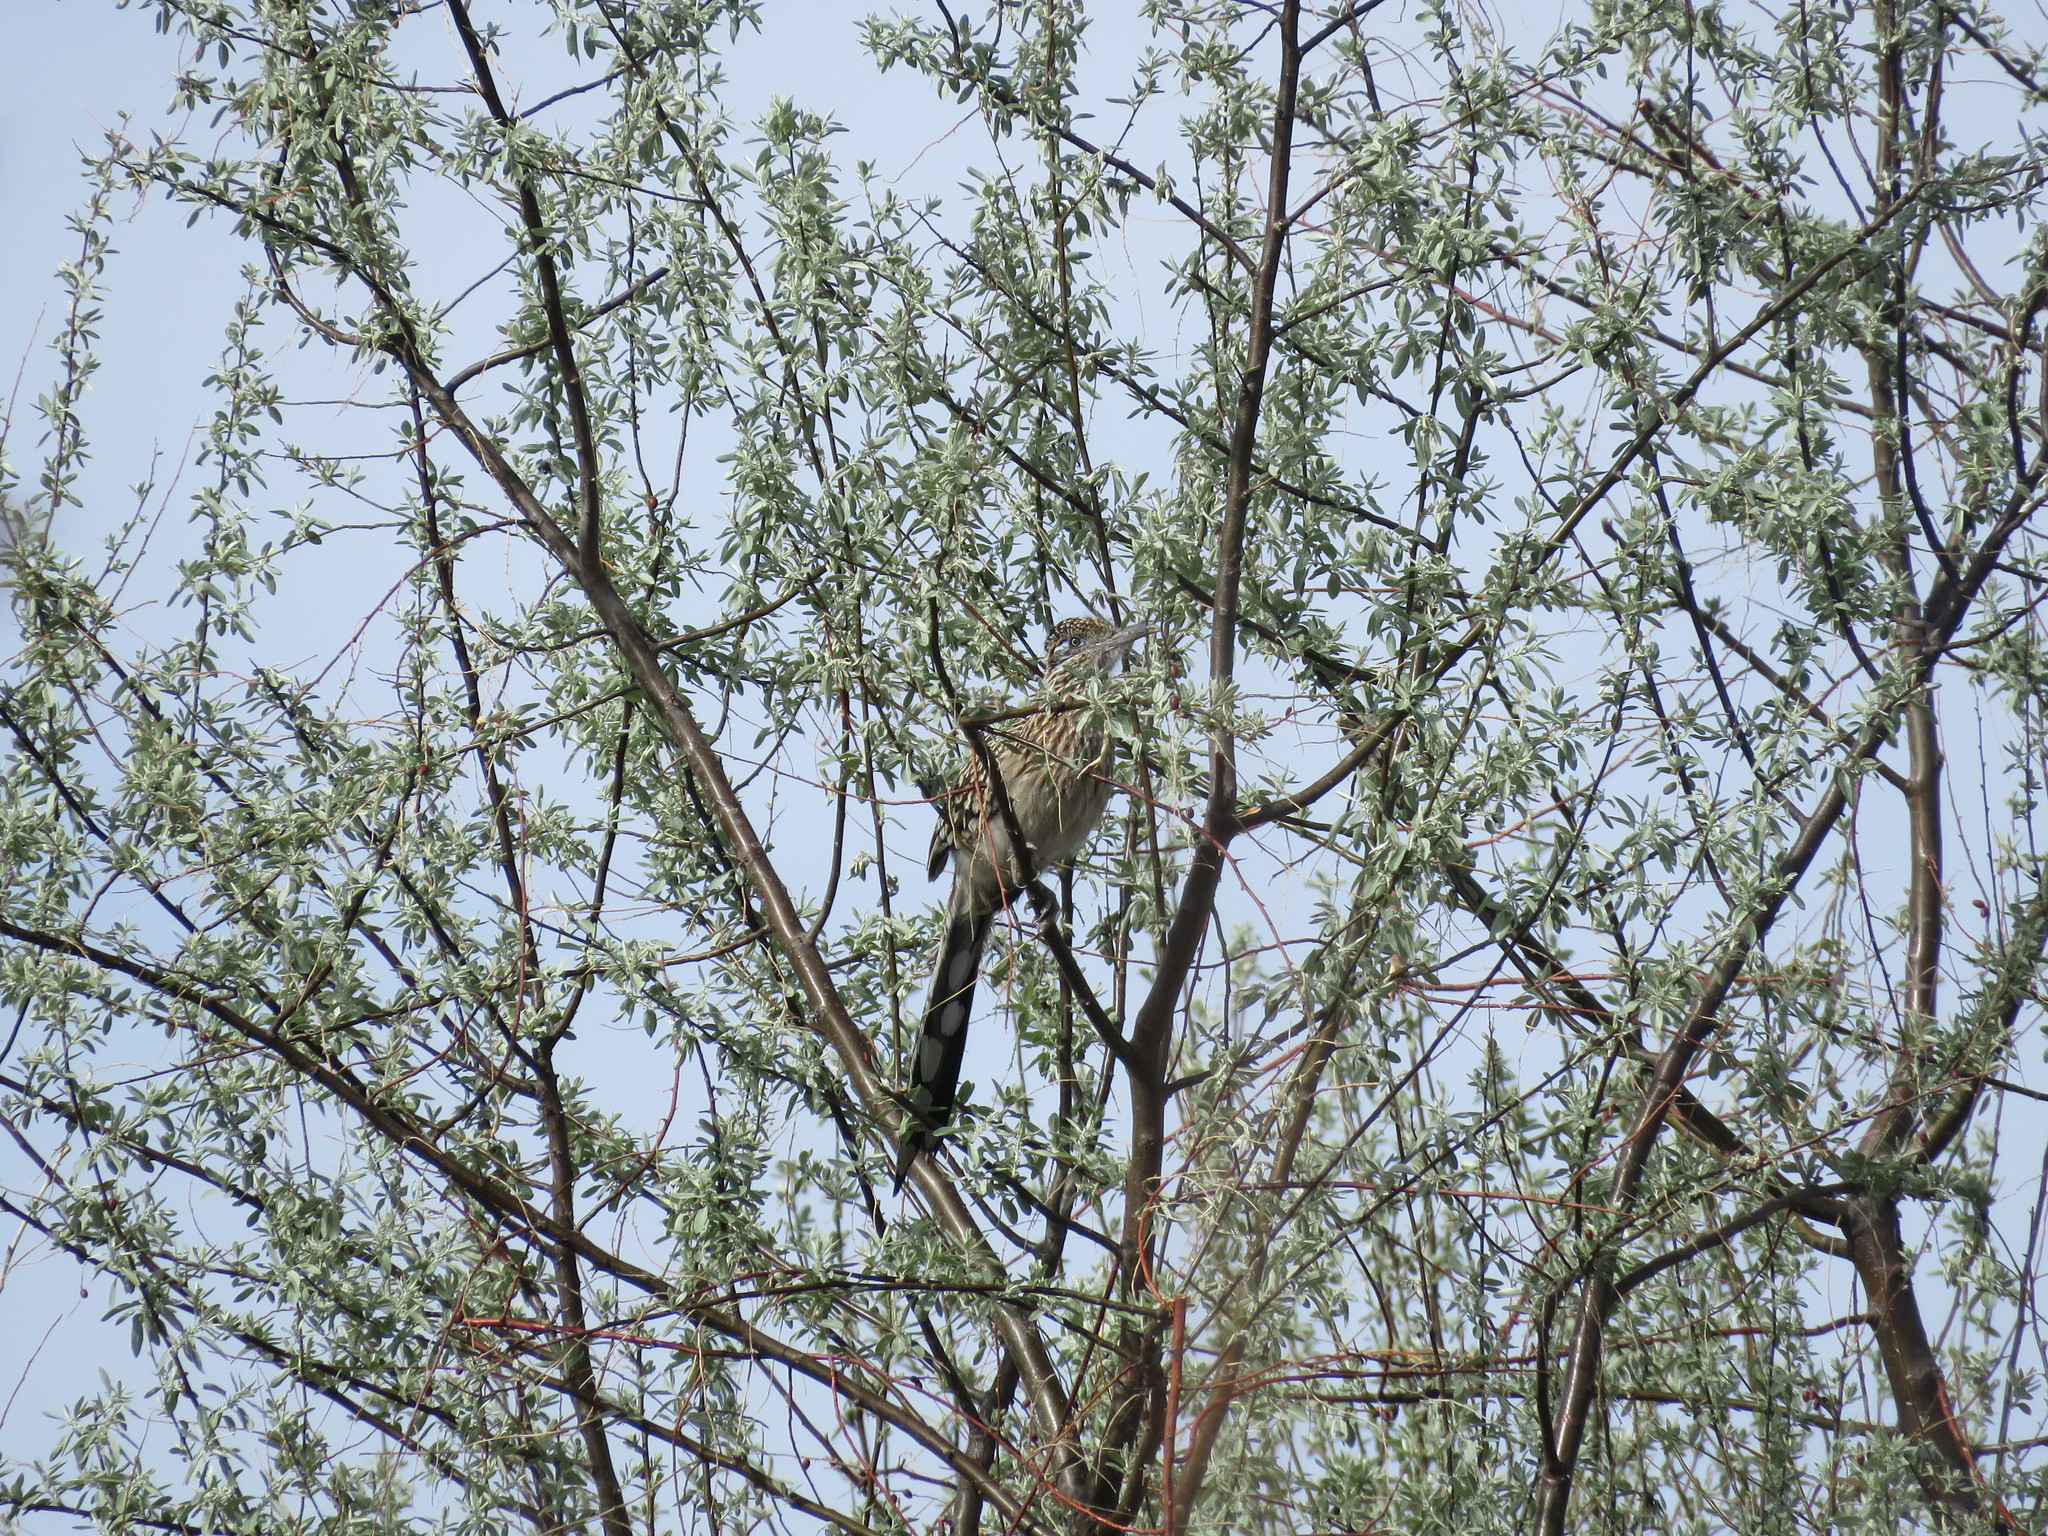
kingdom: Animalia
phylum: Chordata
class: Aves
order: Cuculiformes
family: Cuculidae
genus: Geococcyx
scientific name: Geococcyx californianus
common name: Greater roadrunner
